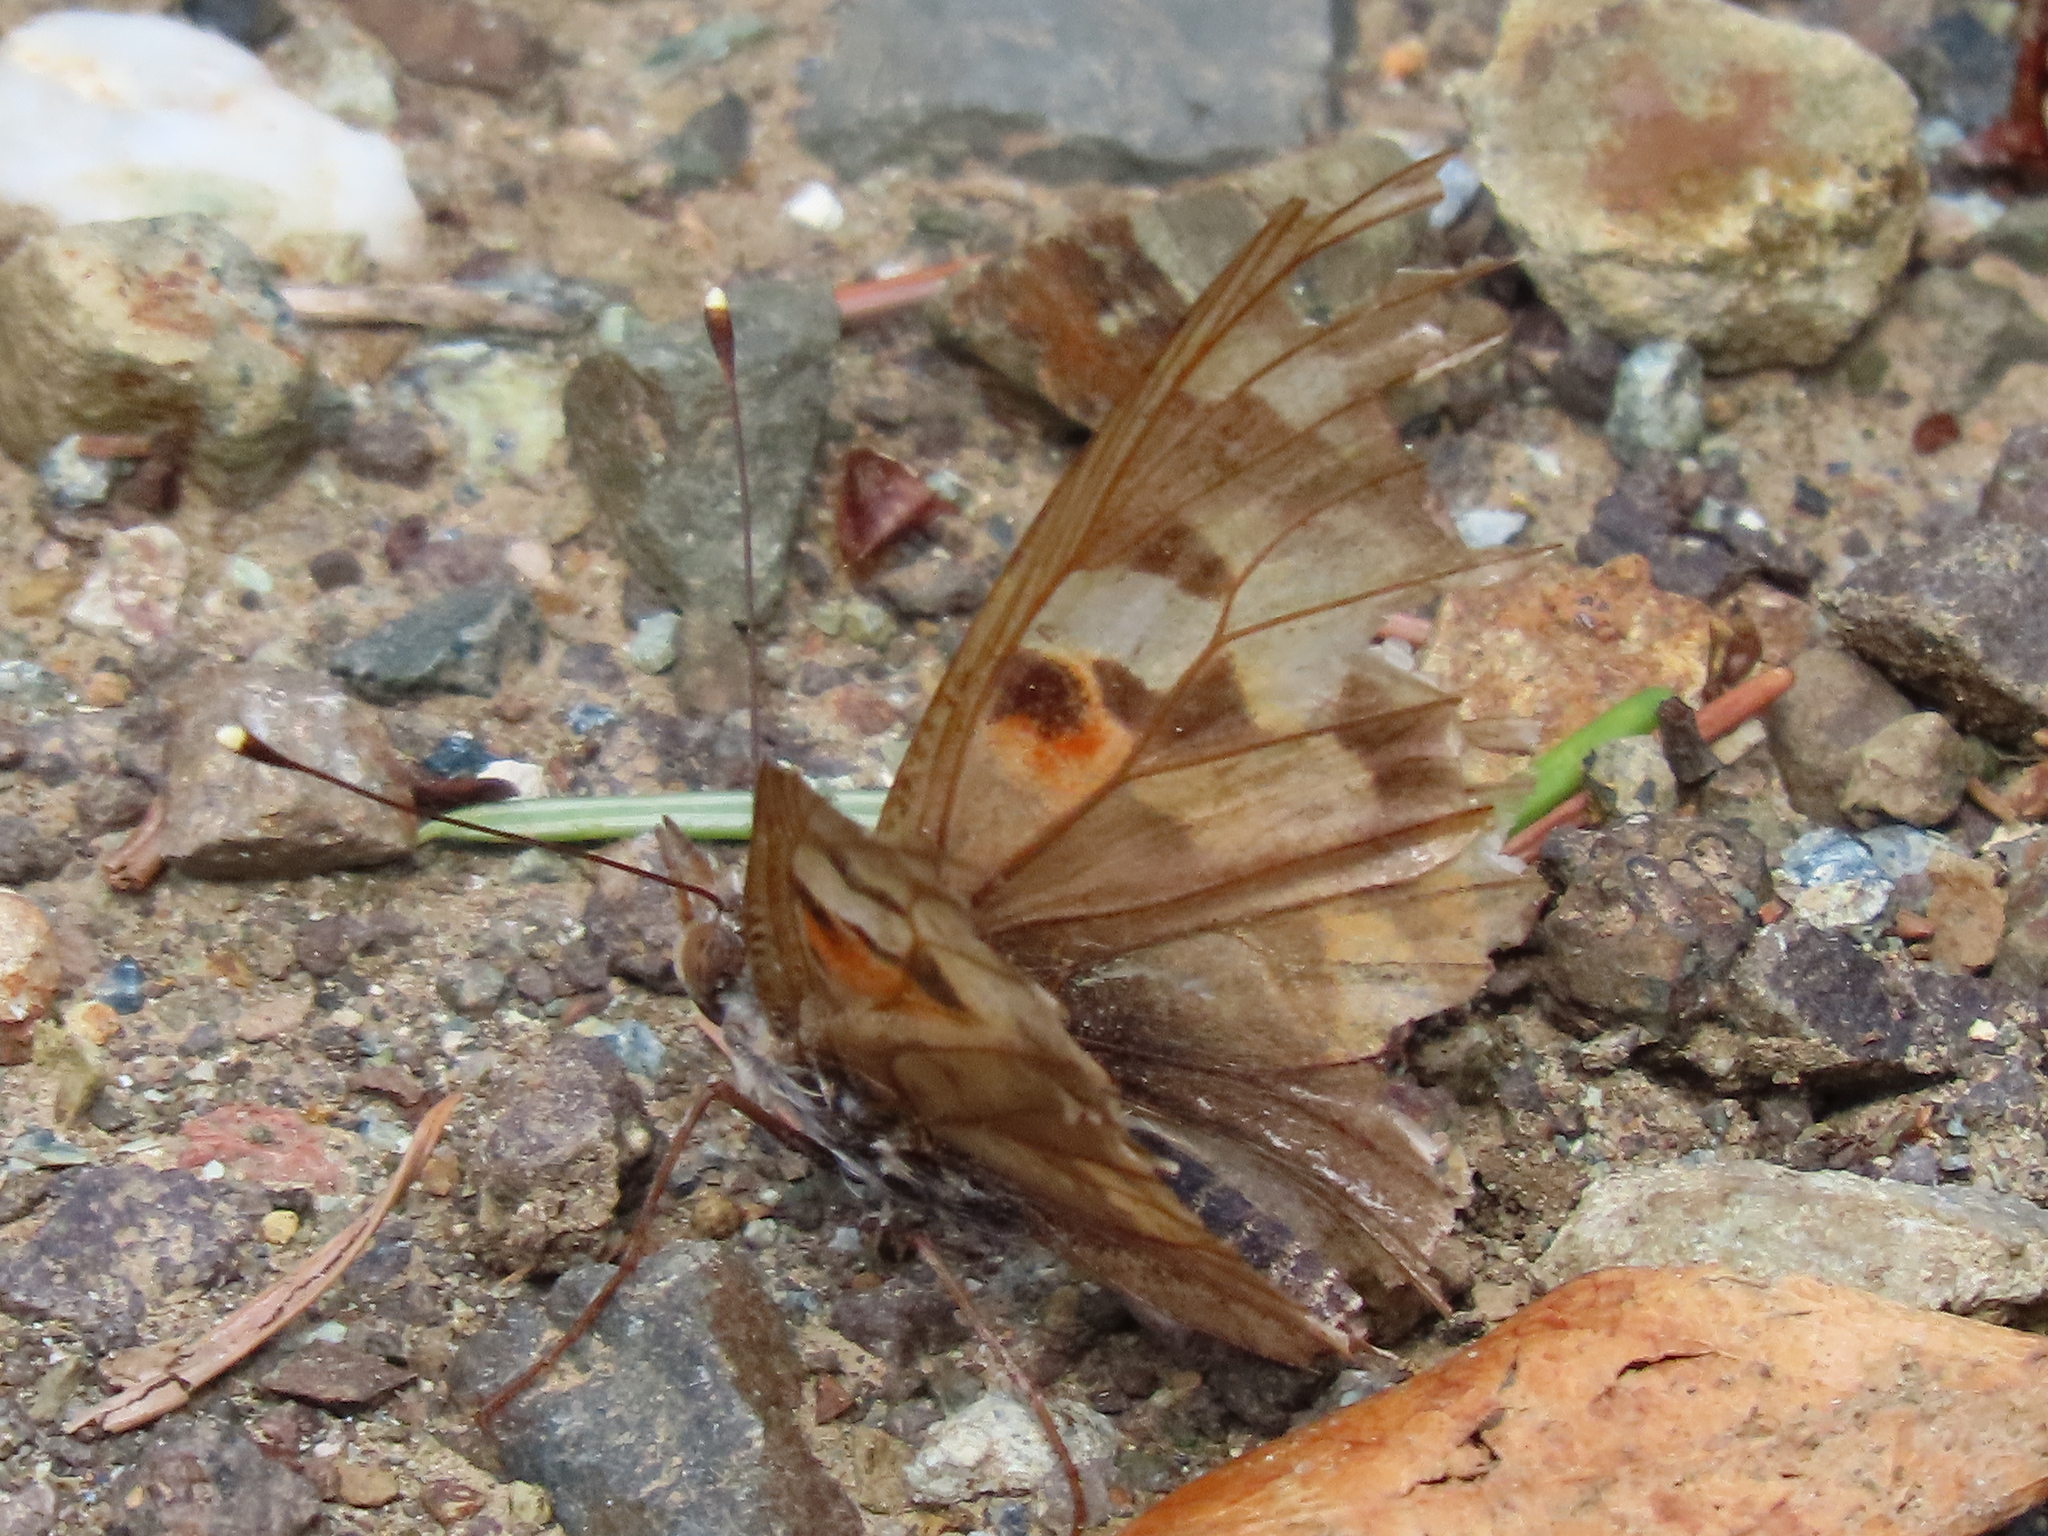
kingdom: Animalia
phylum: Arthropoda
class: Insecta
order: Lepidoptera
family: Nymphalidae
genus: Vanessa
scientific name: Vanessa cardui
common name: Painted lady
